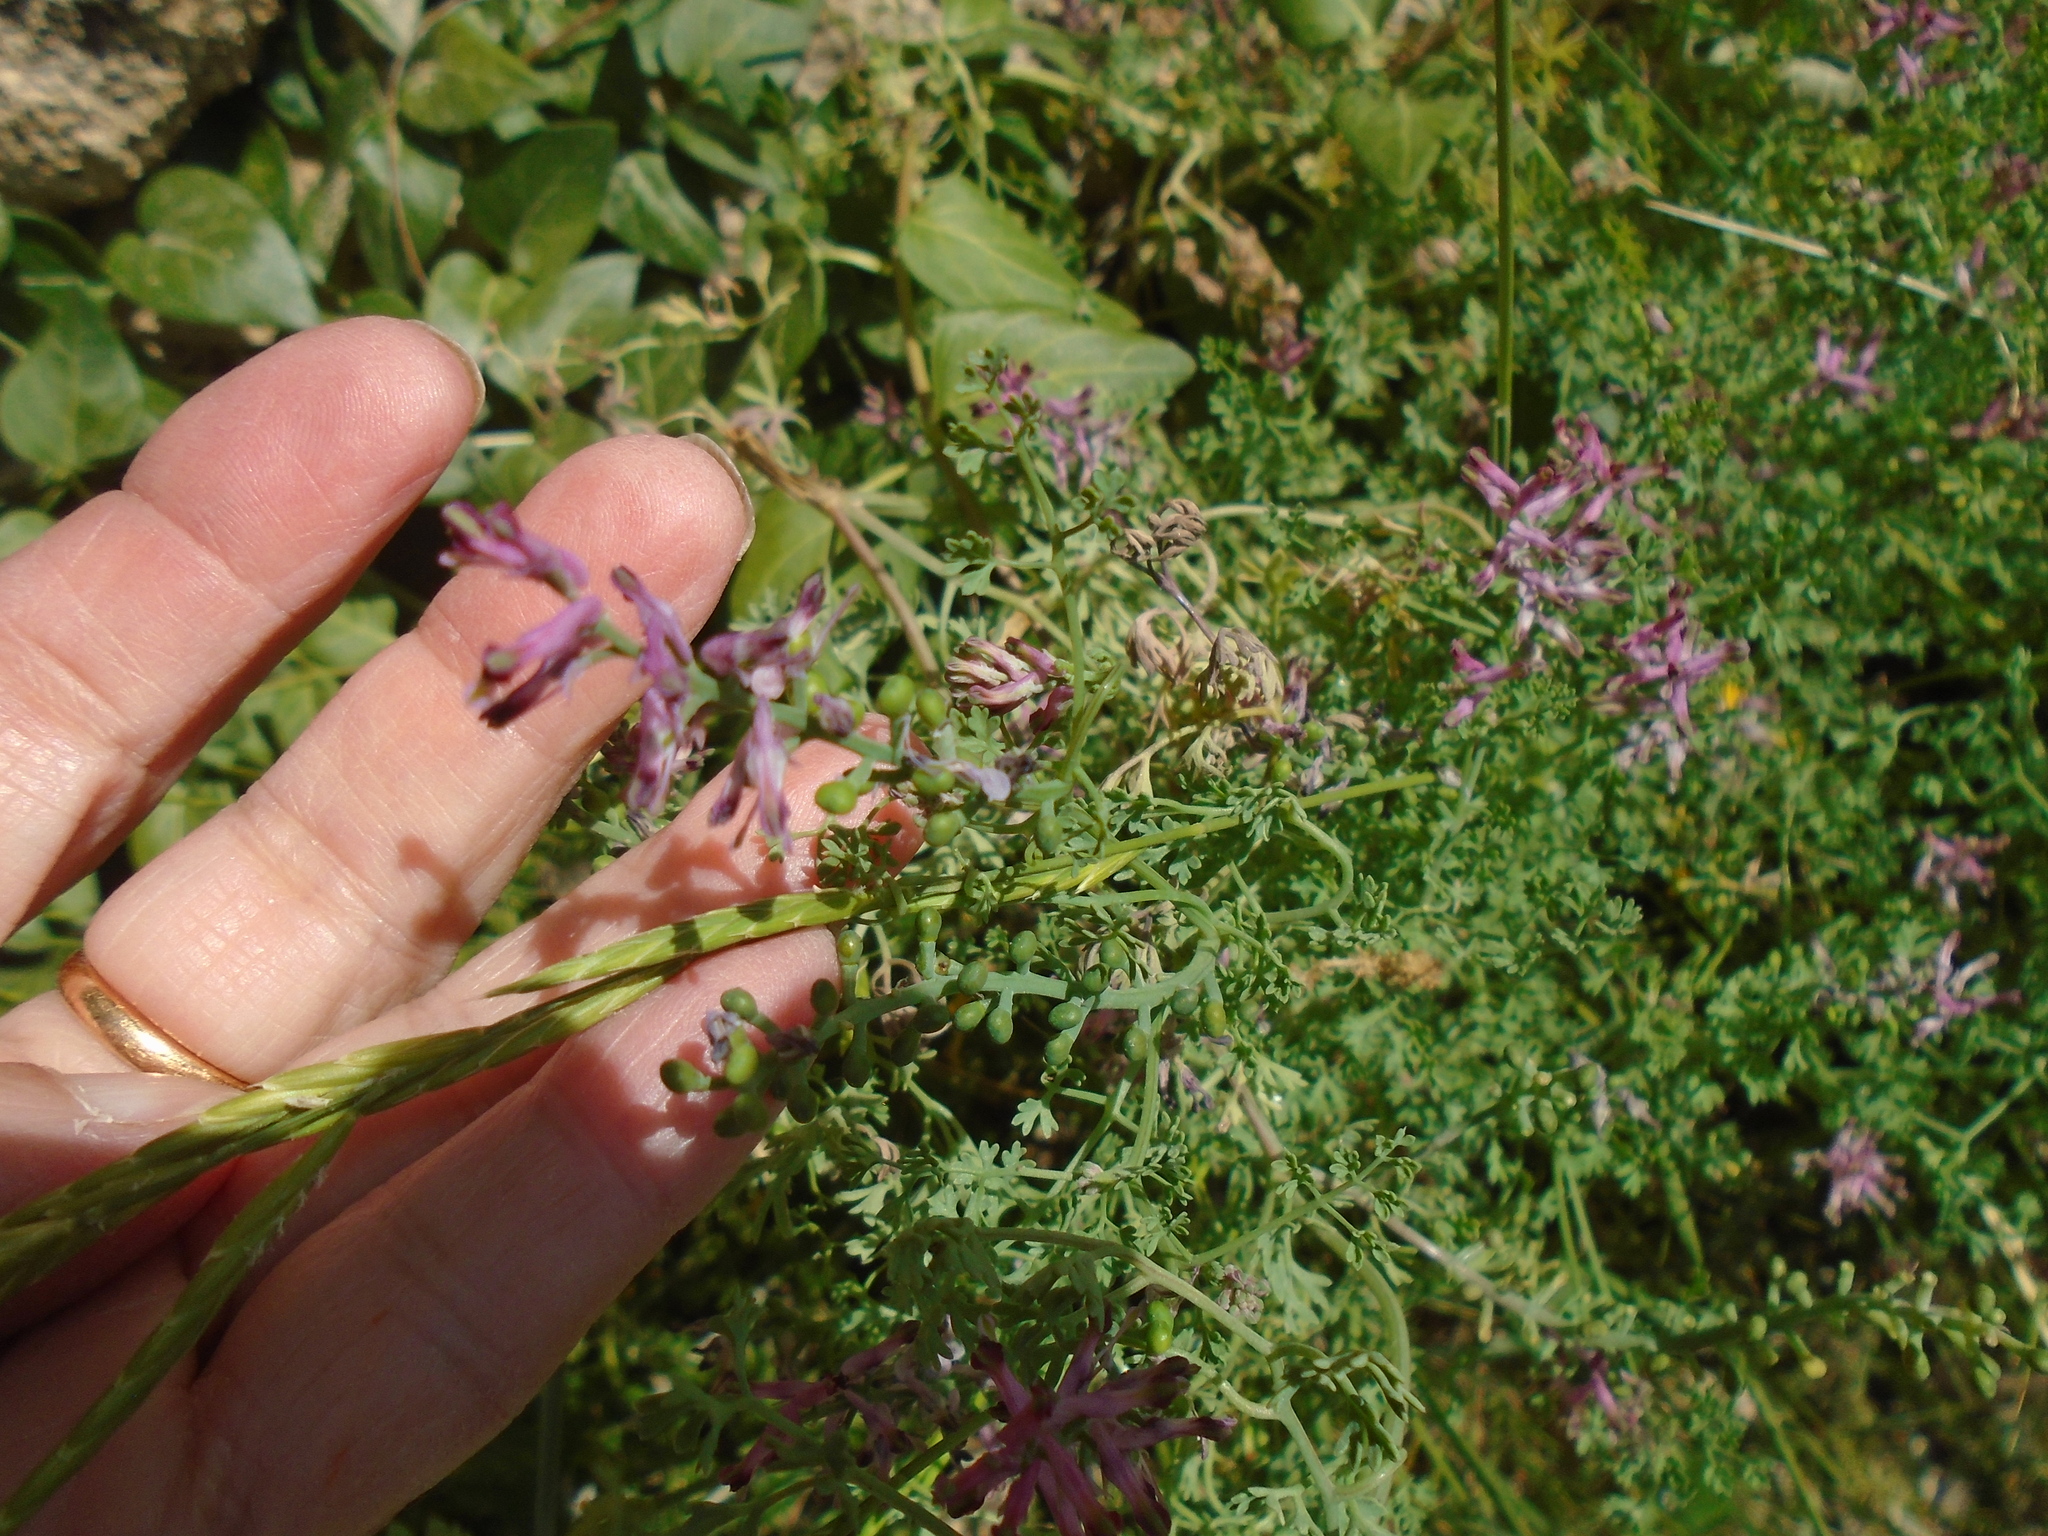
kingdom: Plantae
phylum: Tracheophyta
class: Magnoliopsida
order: Ranunculales
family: Papaveraceae
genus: Fumaria
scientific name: Fumaria officinalis
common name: Common fumitory
